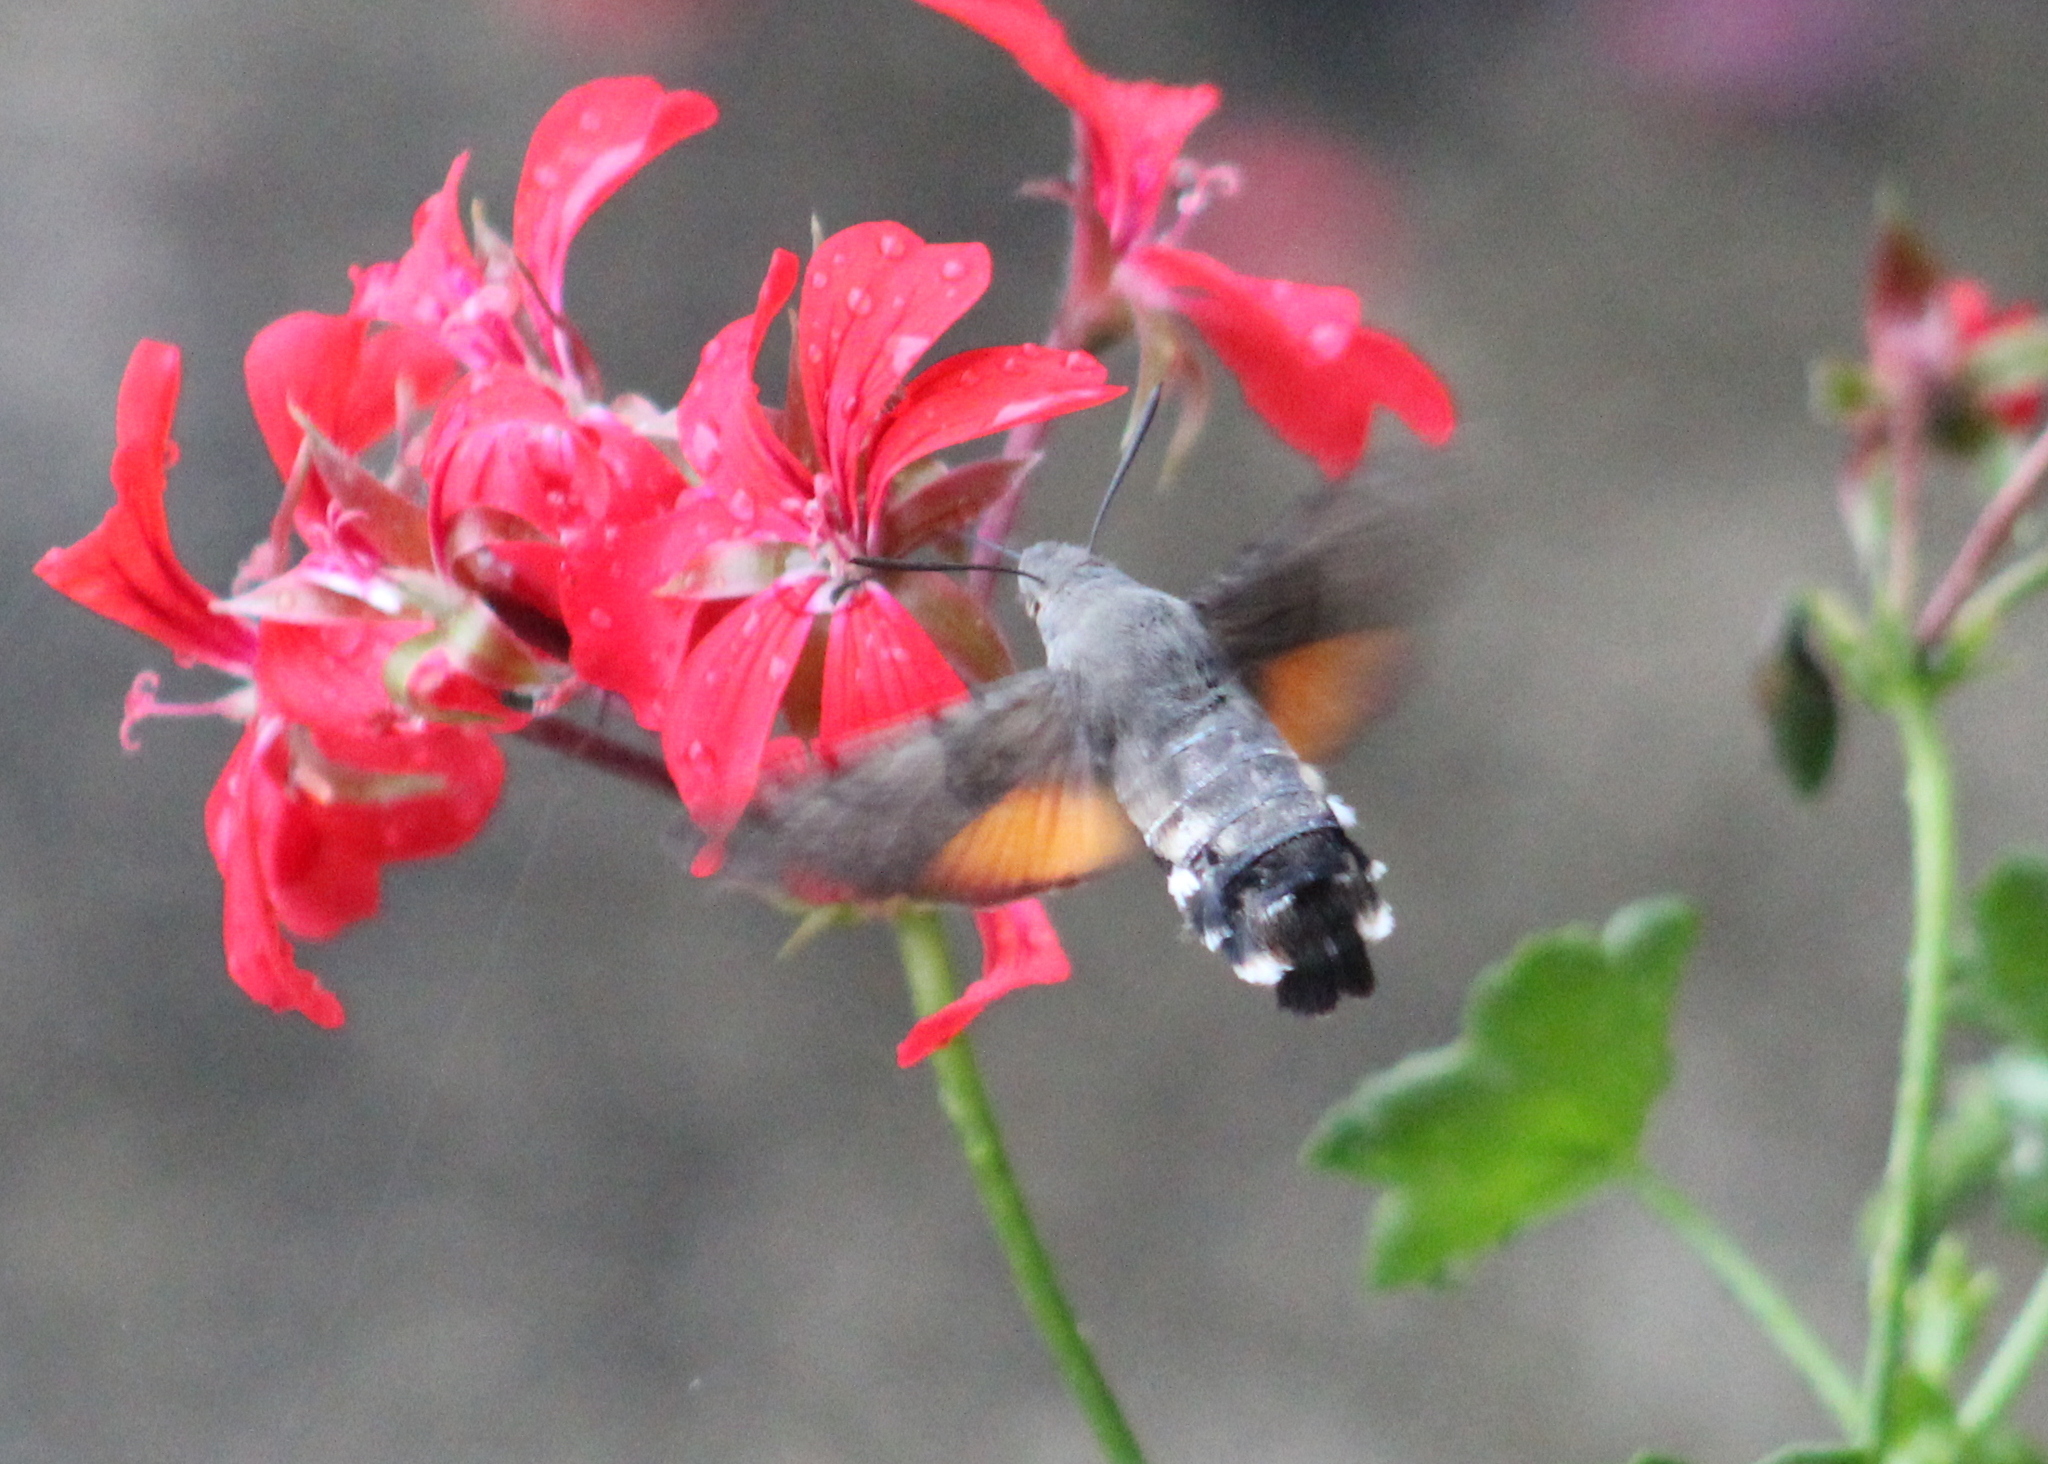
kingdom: Animalia
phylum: Arthropoda
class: Insecta
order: Lepidoptera
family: Sphingidae
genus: Macroglossum
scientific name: Macroglossum stellatarum
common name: Humming-bird hawk-moth
